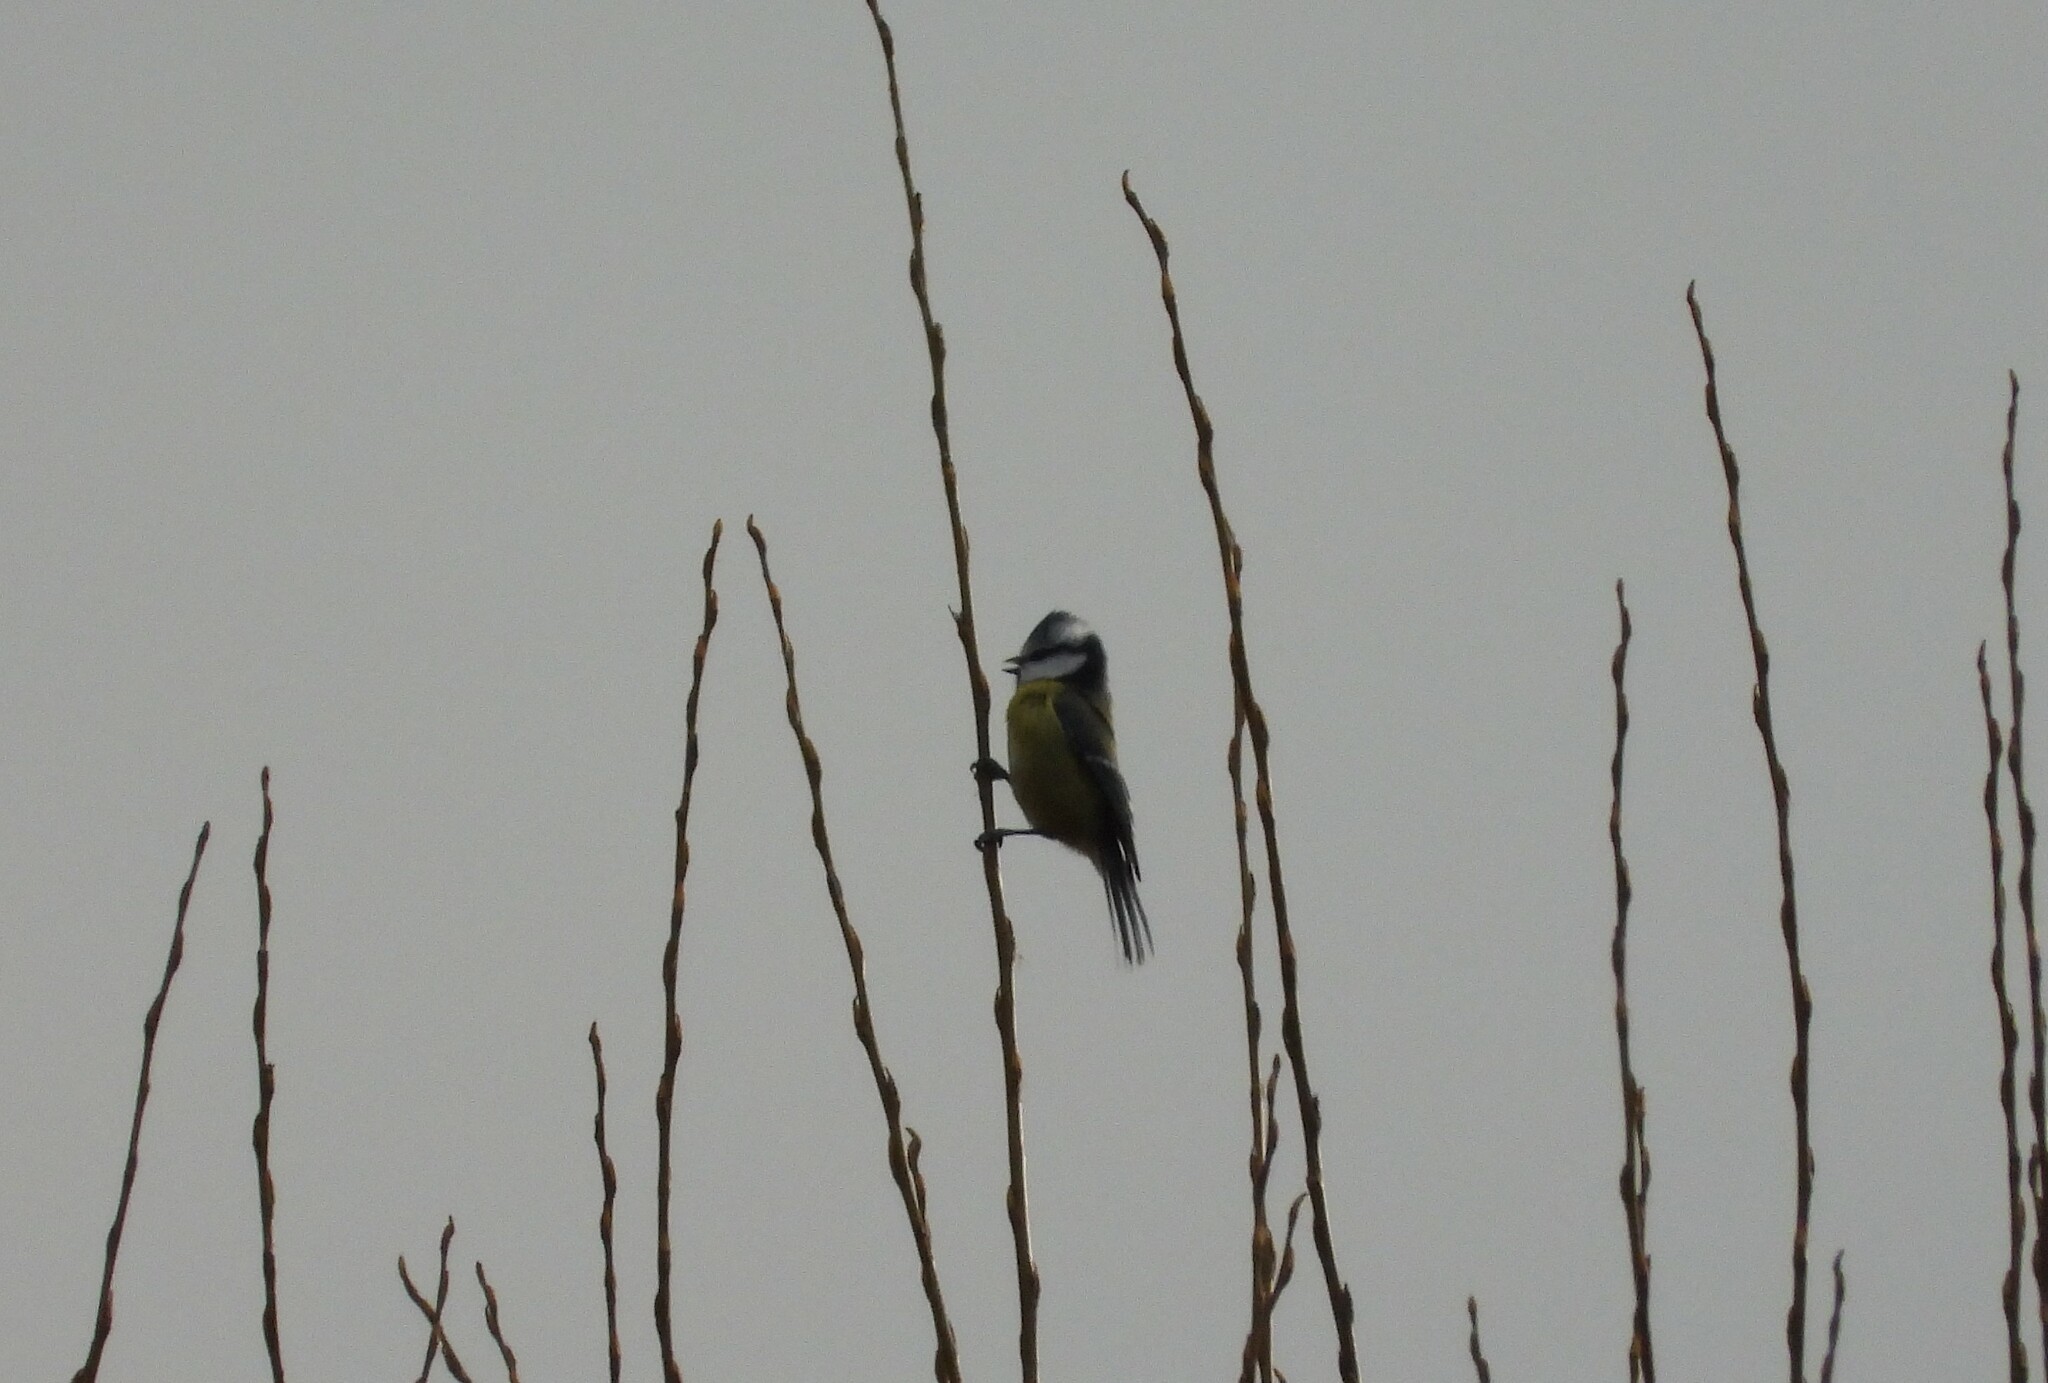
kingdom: Animalia
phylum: Chordata
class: Aves
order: Passeriformes
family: Paridae
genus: Cyanistes
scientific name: Cyanistes caeruleus
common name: Eurasian blue tit
